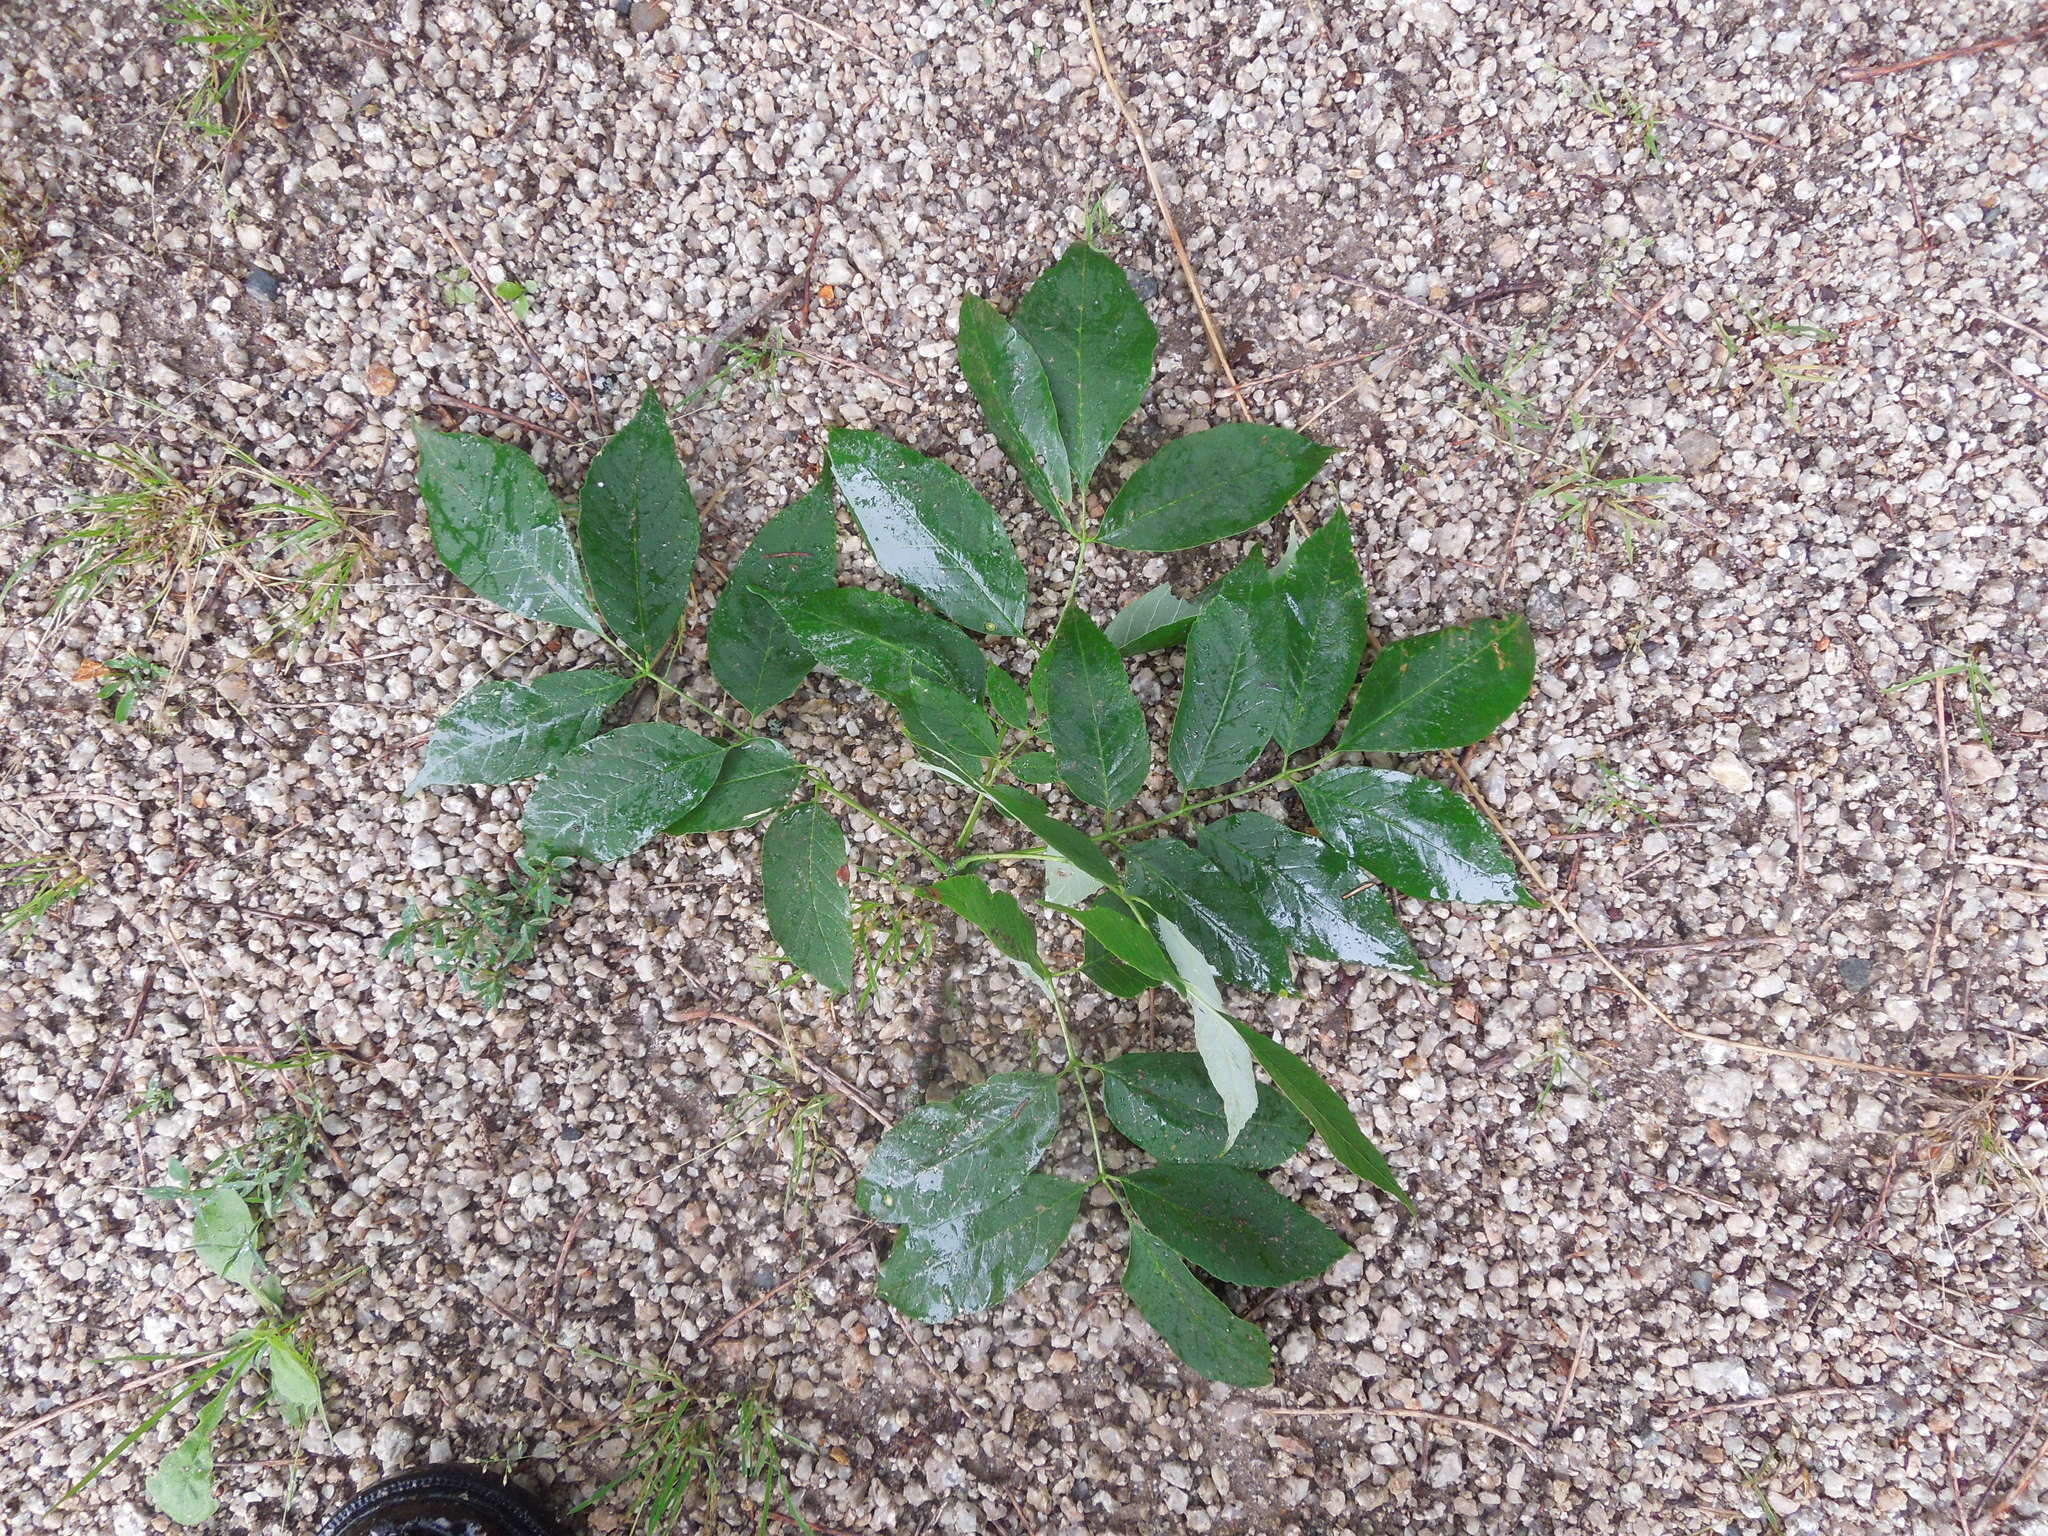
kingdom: Plantae
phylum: Tracheophyta
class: Magnoliopsida
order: Lamiales
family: Oleaceae
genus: Fraxinus
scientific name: Fraxinus americana
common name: White ash
